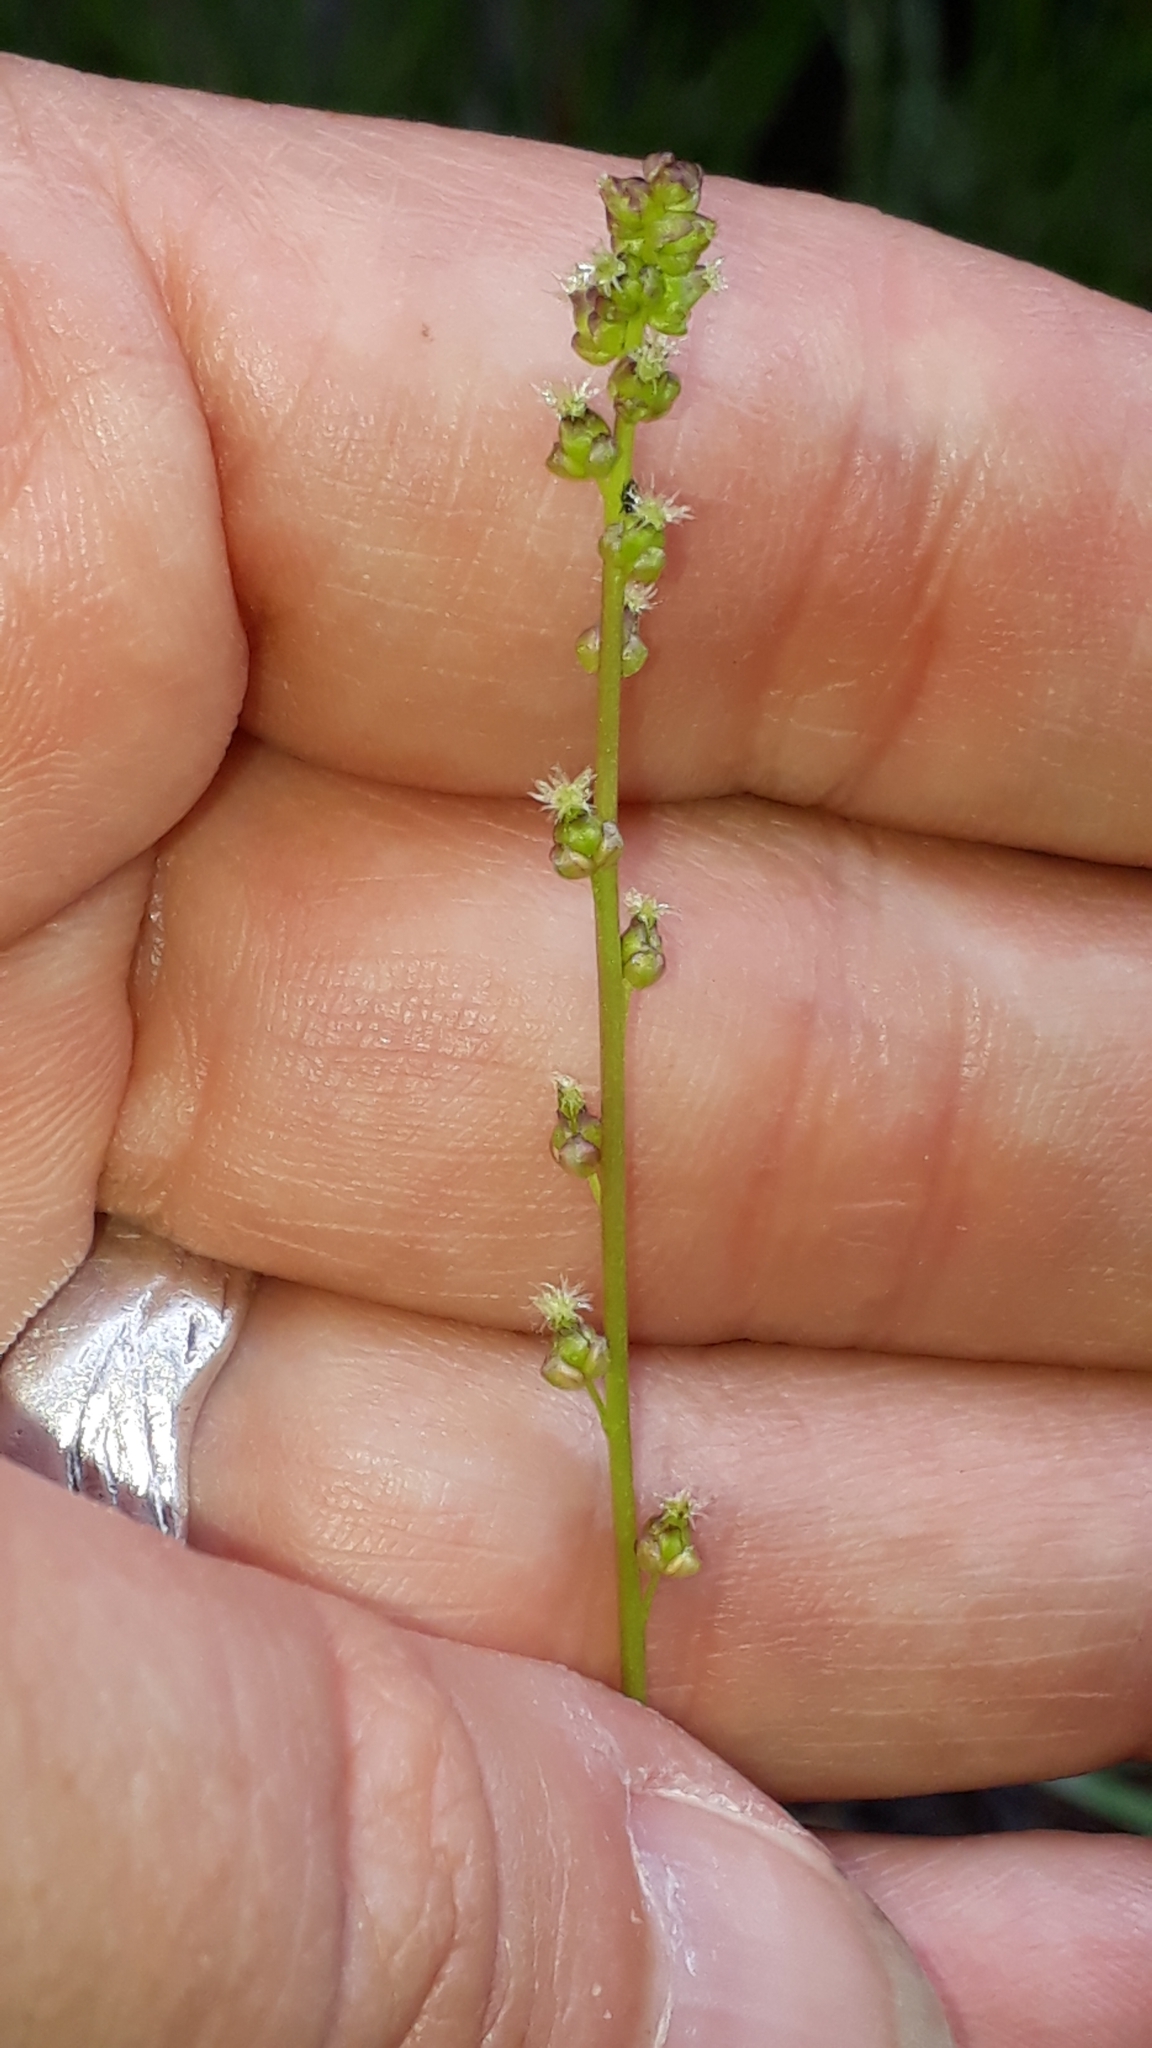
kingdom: Plantae
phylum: Tracheophyta
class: Liliopsida
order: Alismatales
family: Juncaginaceae
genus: Triglochin
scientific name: Triglochin palustris
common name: Marsh arrowgrass
